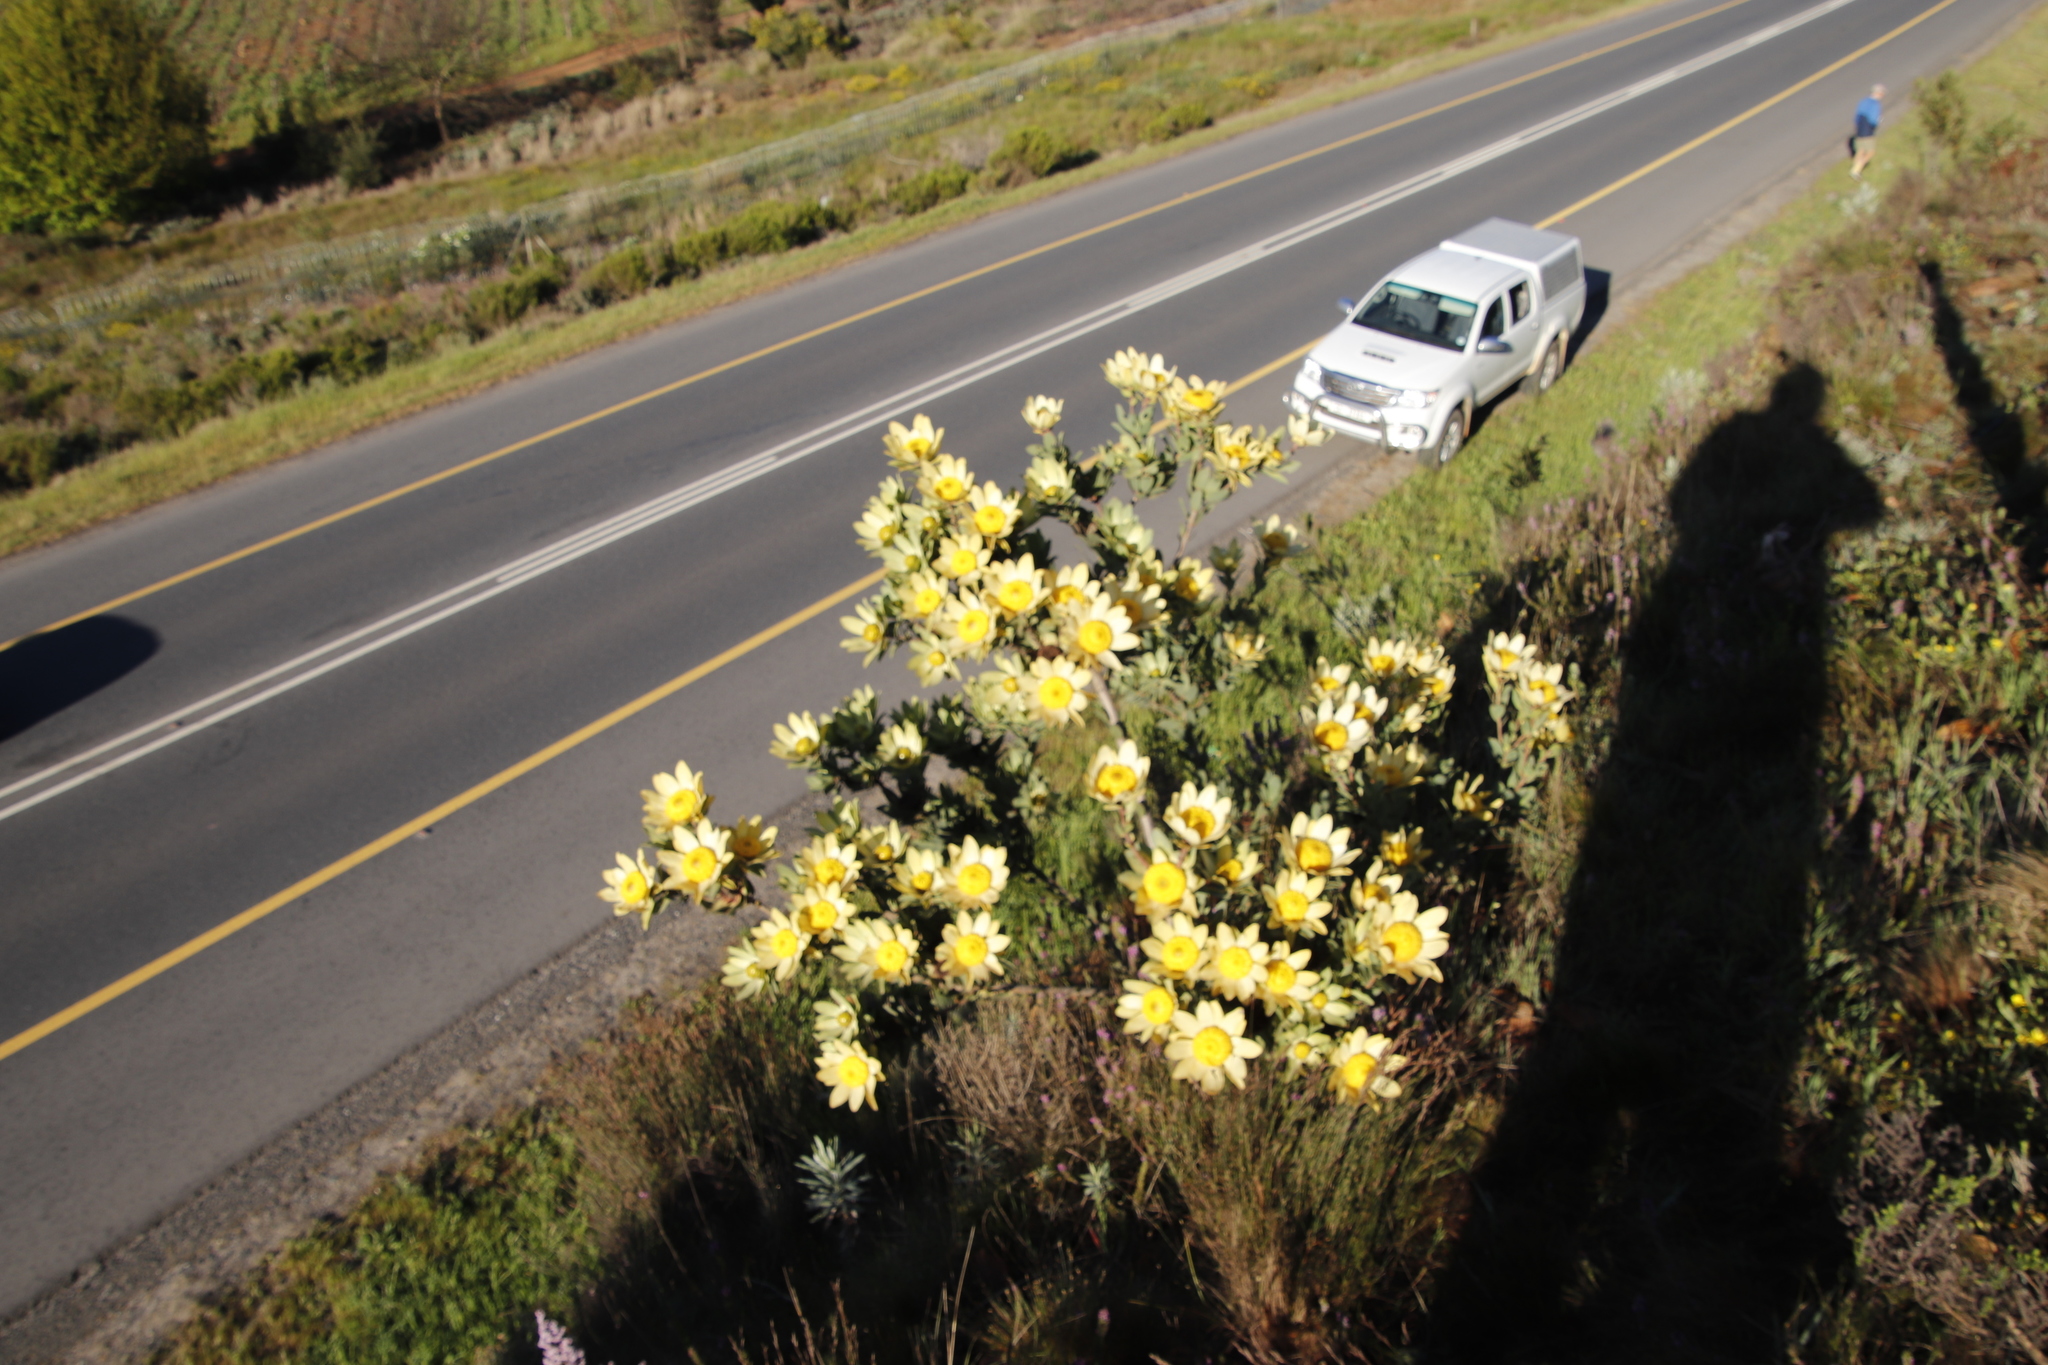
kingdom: Plantae
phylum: Tracheophyta
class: Magnoliopsida
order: Proteales
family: Proteaceae
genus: Leucadendron
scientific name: Leucadendron globosum
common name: Grabouw conebush
